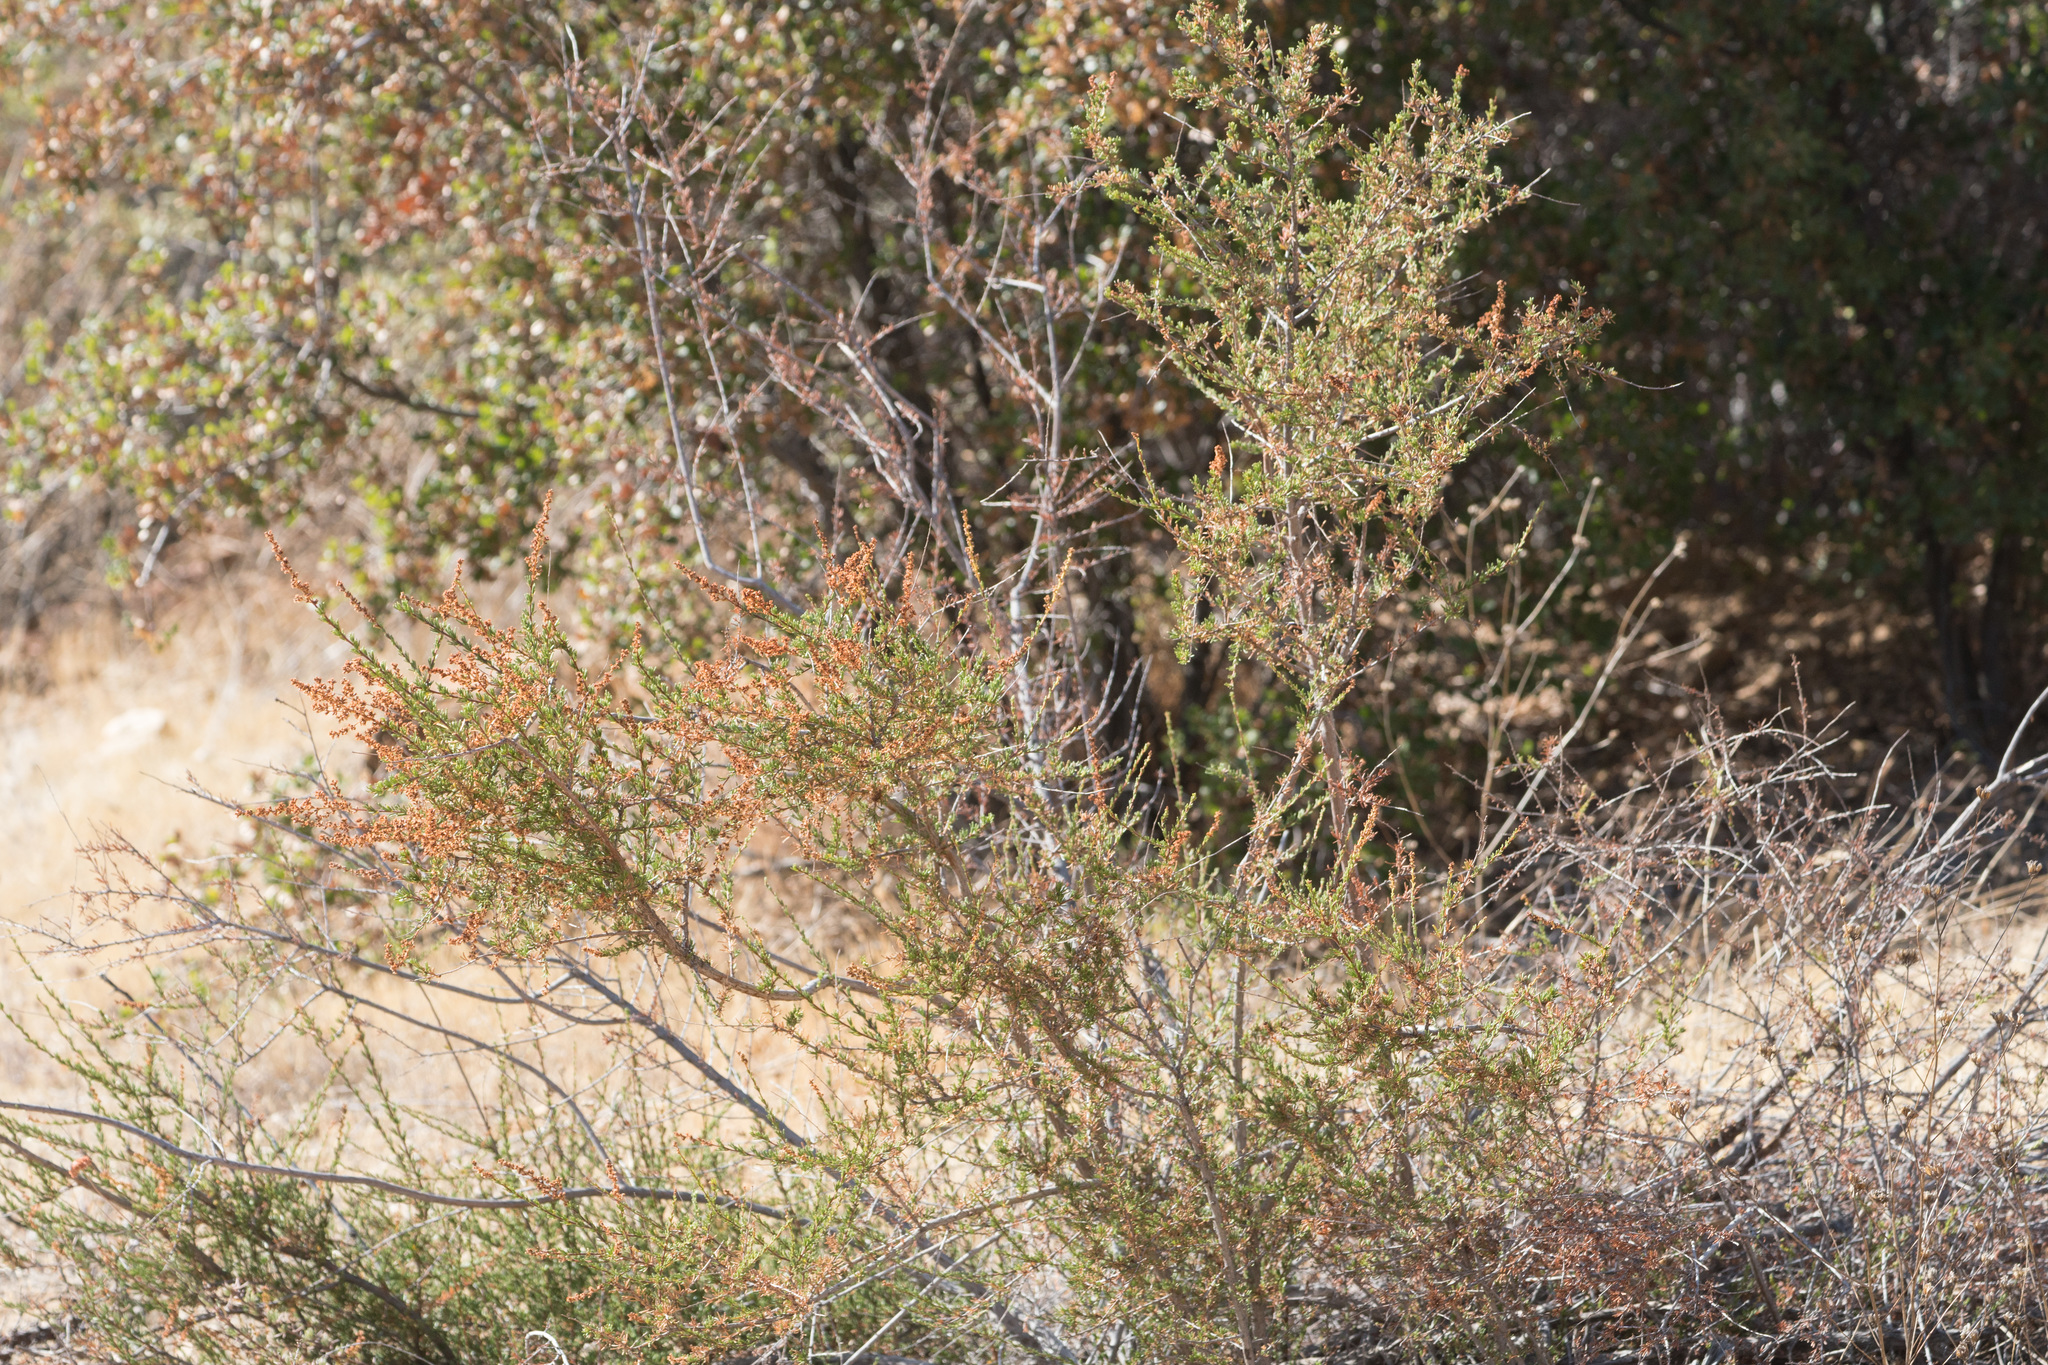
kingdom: Plantae
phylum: Tracheophyta
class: Magnoliopsida
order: Rosales
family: Rosaceae
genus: Adenostoma
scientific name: Adenostoma fasciculatum
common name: Chamise
